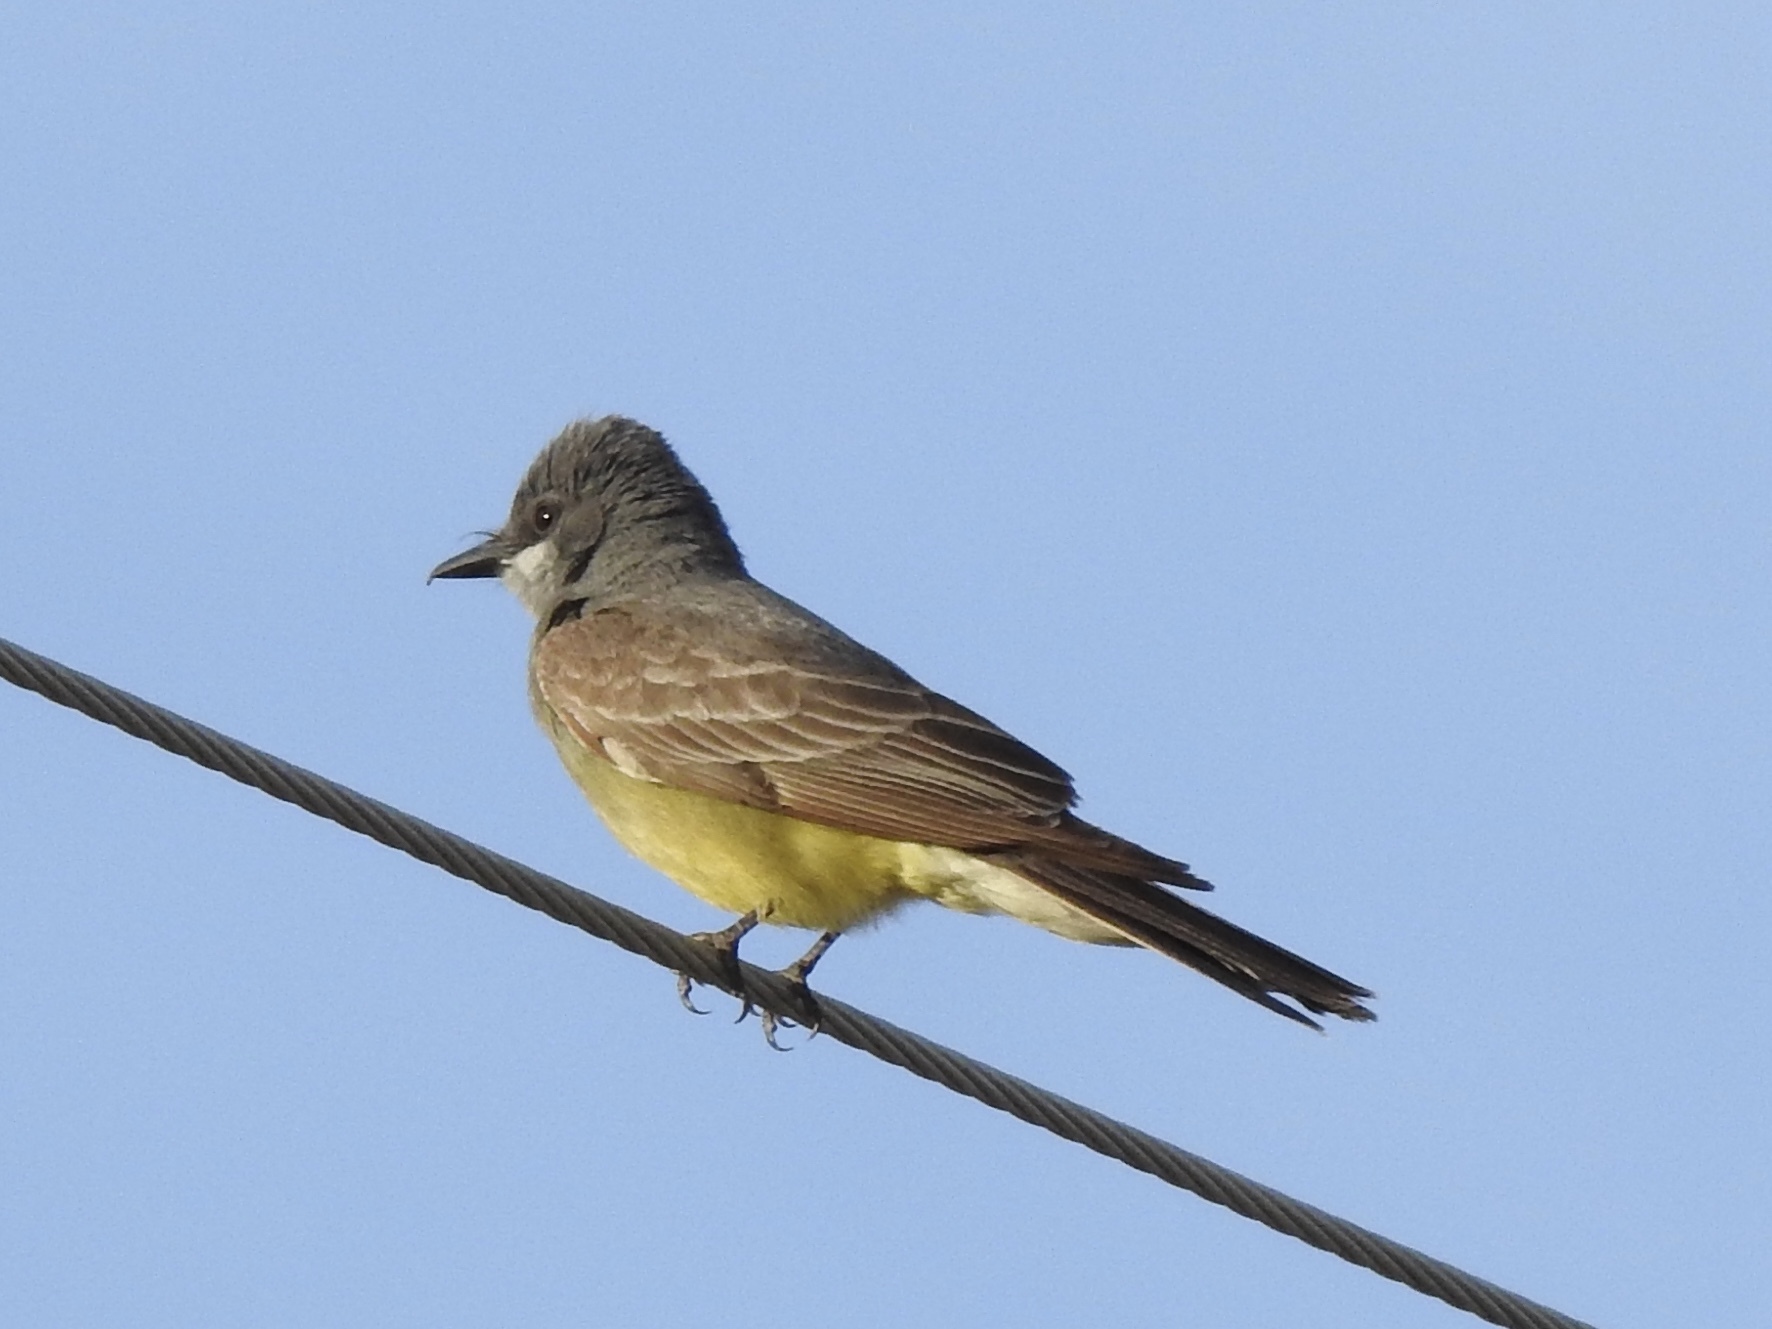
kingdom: Animalia
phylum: Chordata
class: Aves
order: Passeriformes
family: Tyrannidae
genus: Tyrannus
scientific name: Tyrannus vociferans
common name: Cassin's kingbird
